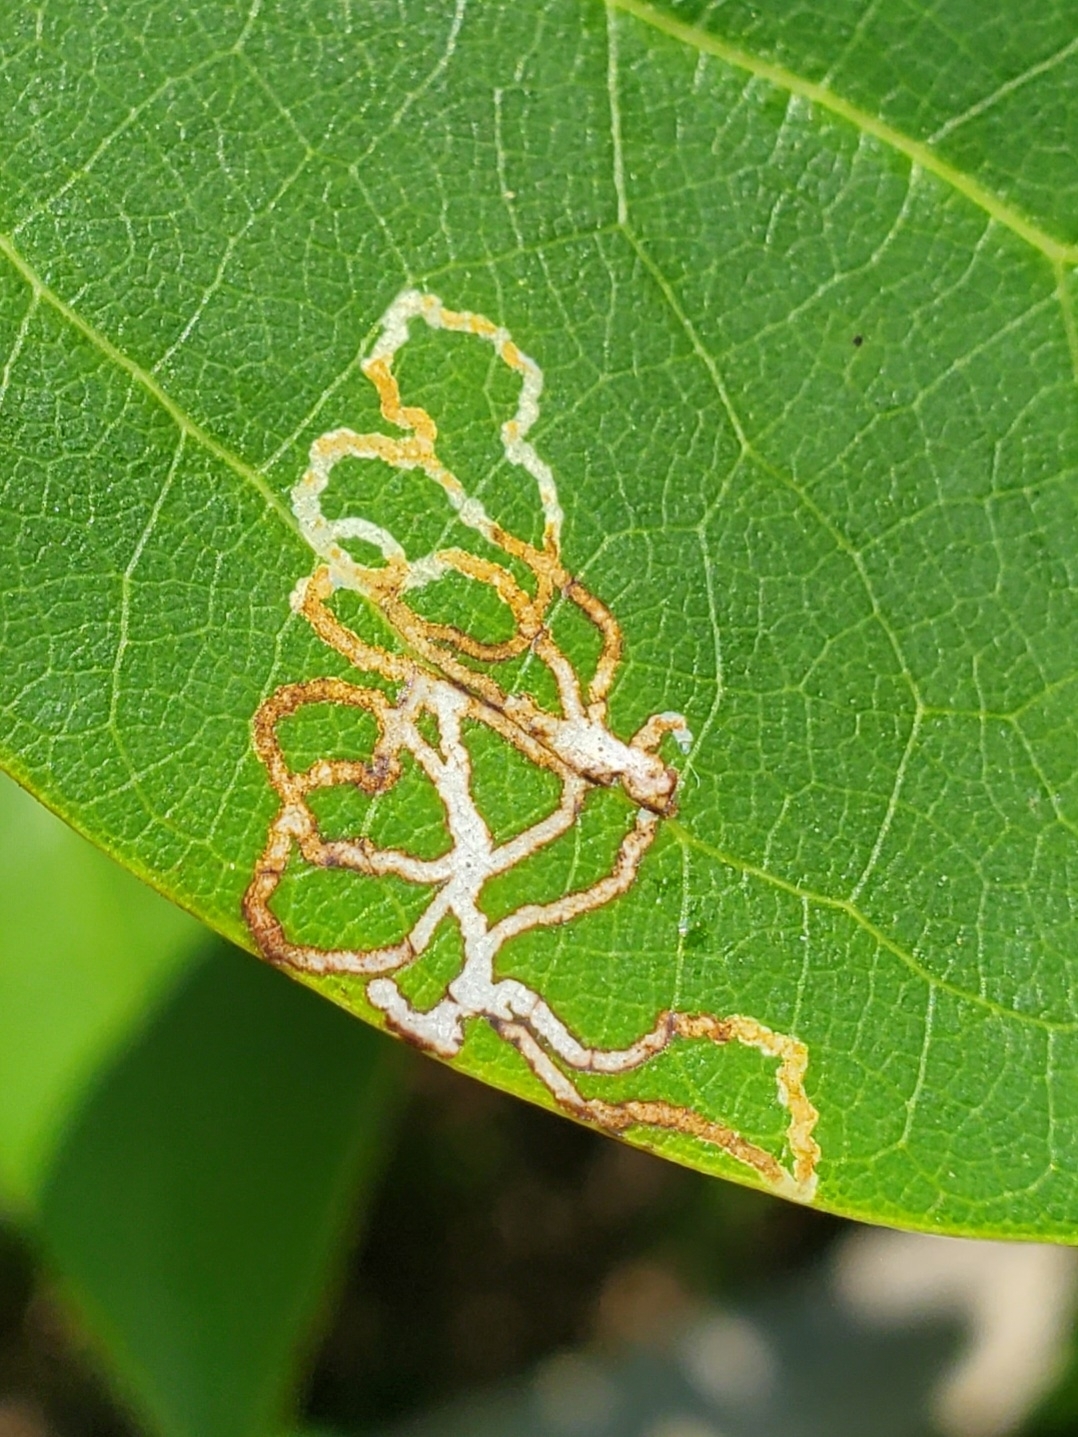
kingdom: Animalia
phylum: Arthropoda
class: Insecta
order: Lepidoptera
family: Gracillariidae
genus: Phyllocnistis
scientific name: Phyllocnistis liriodendronella
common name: Tulip tree leaf miner
